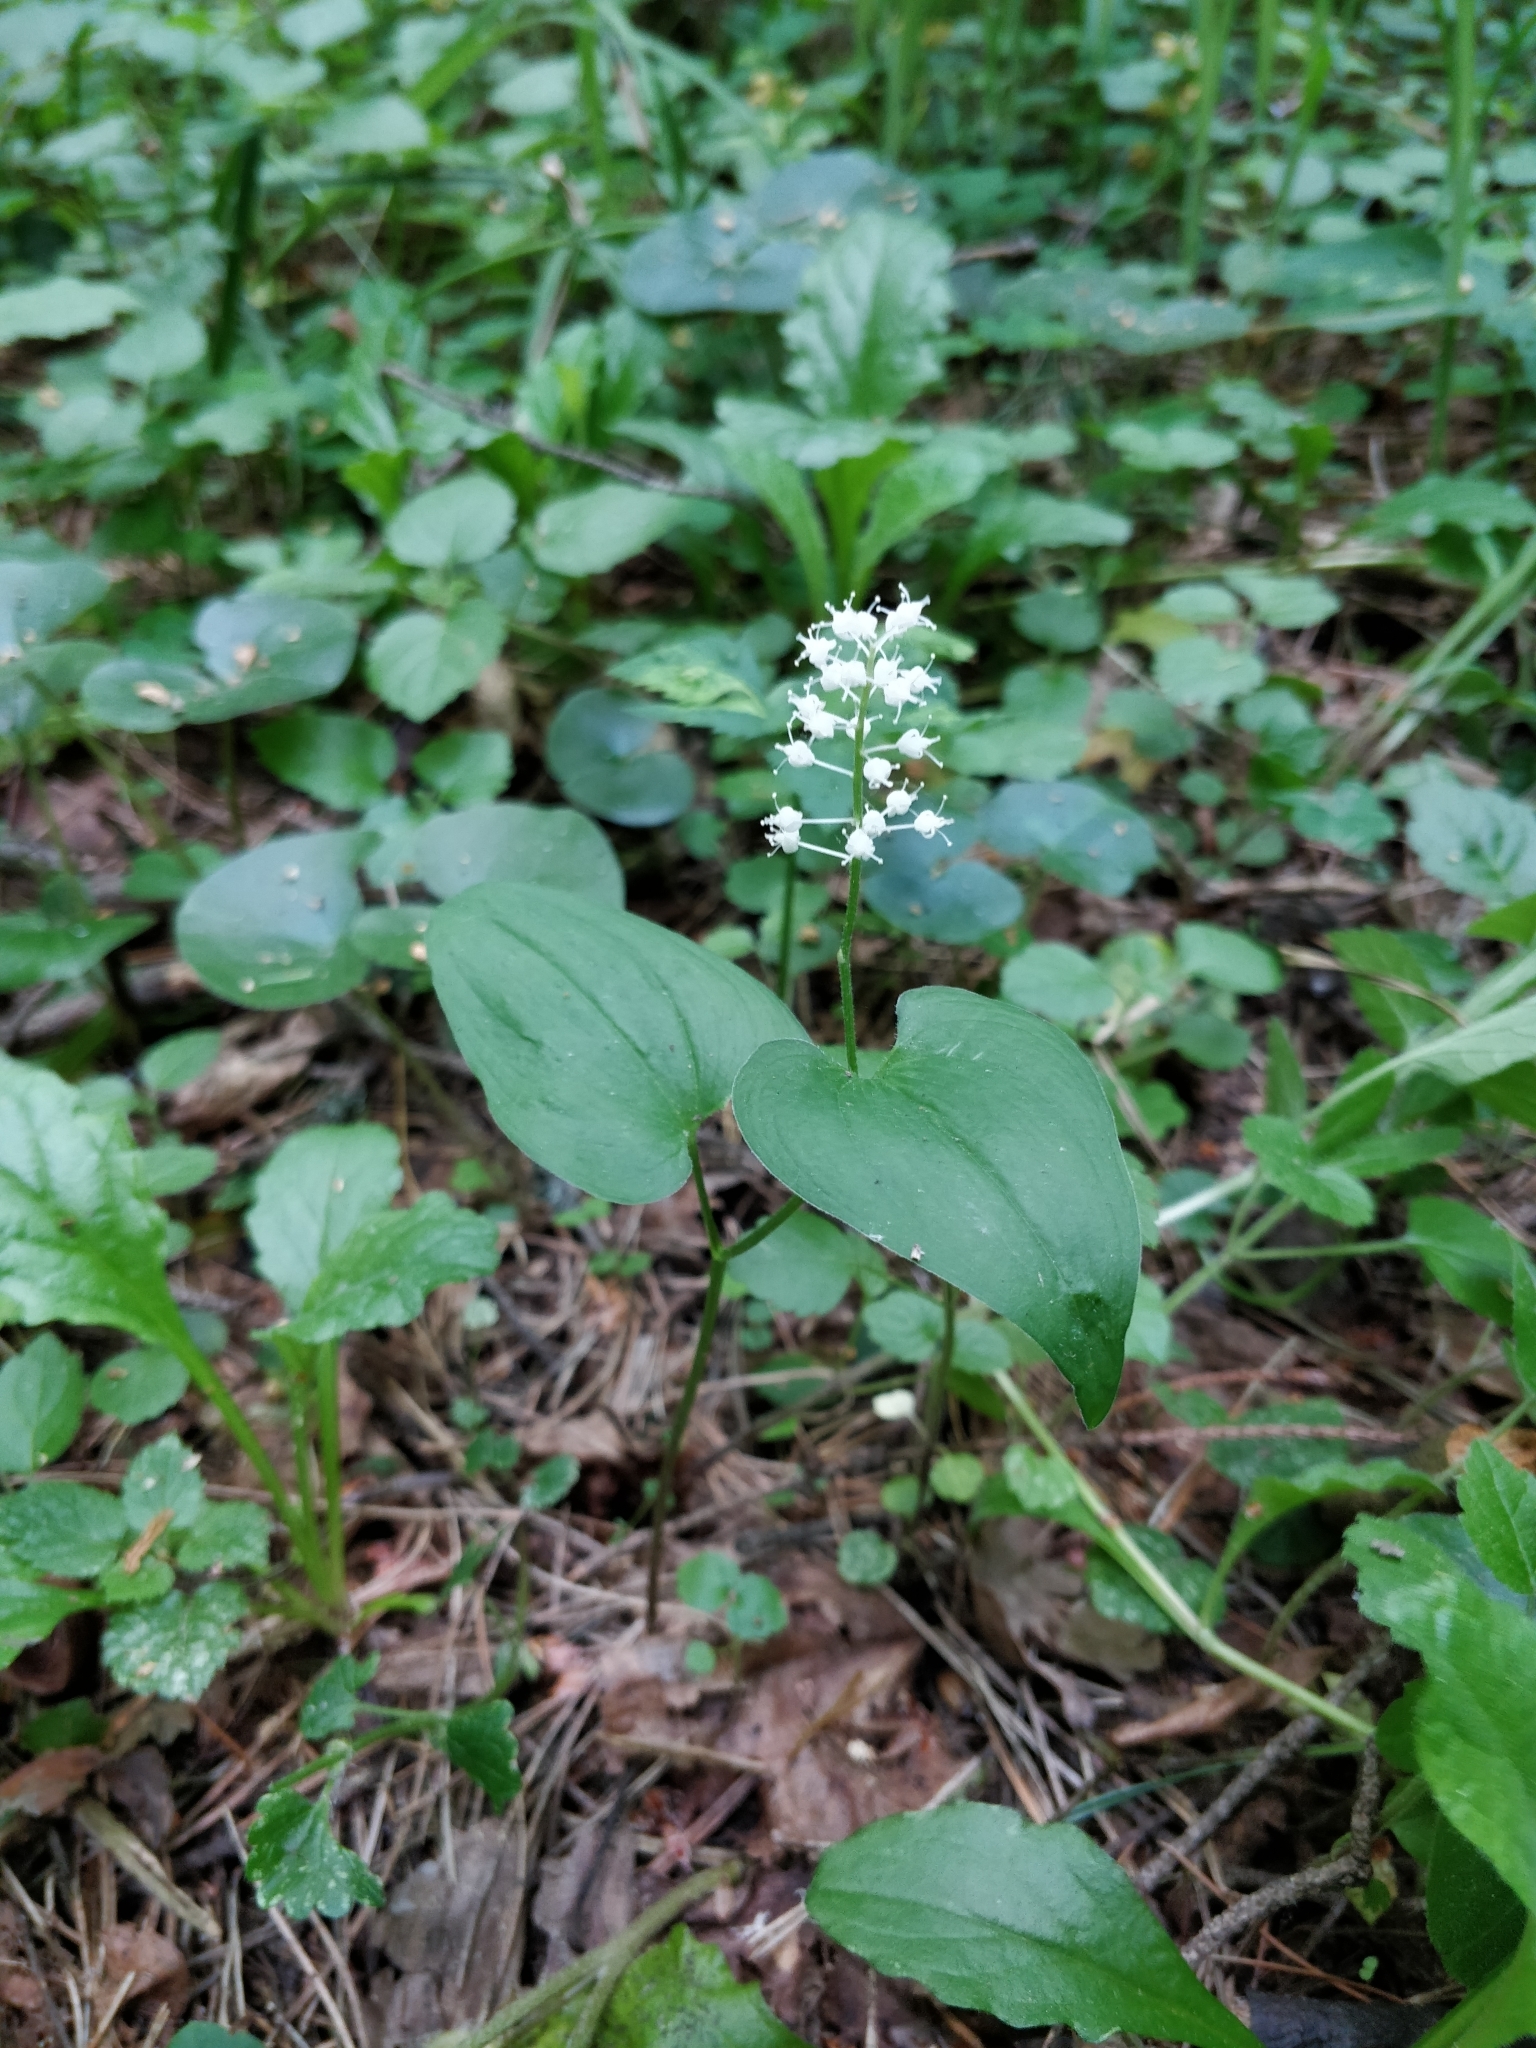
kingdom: Plantae
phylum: Tracheophyta
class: Liliopsida
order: Asparagales
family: Asparagaceae
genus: Maianthemum
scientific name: Maianthemum bifolium
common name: May lily
